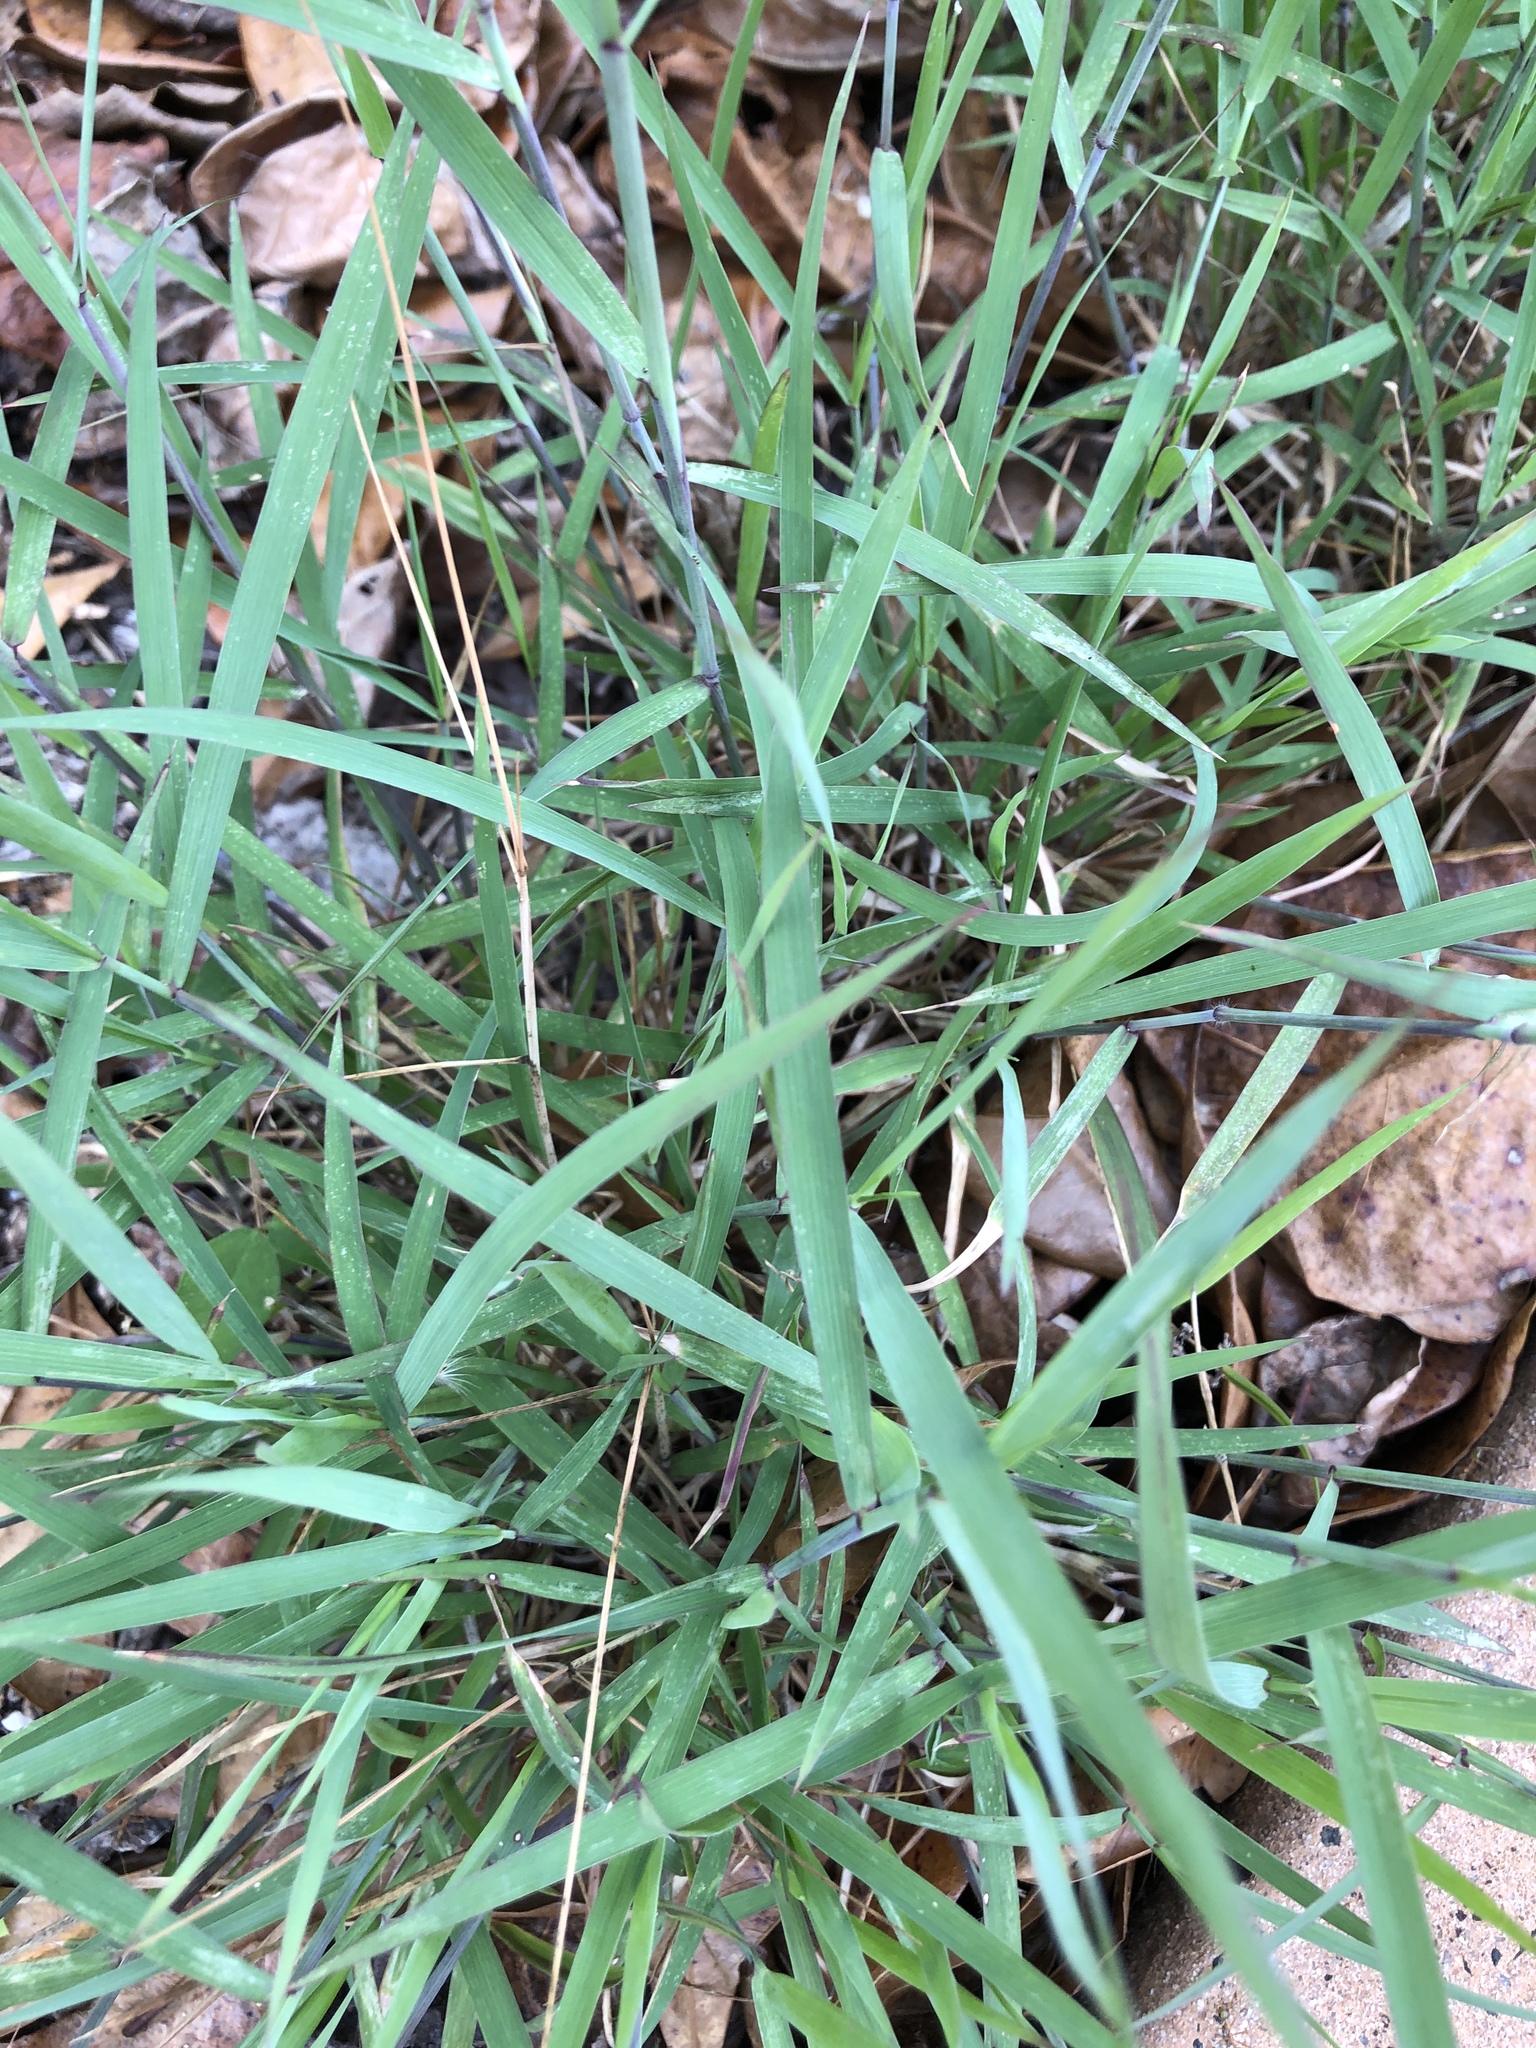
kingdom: Plantae
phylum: Tracheophyta
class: Liliopsida
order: Poales
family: Poaceae
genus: Melinis
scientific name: Melinis repens
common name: Rose natal grass
